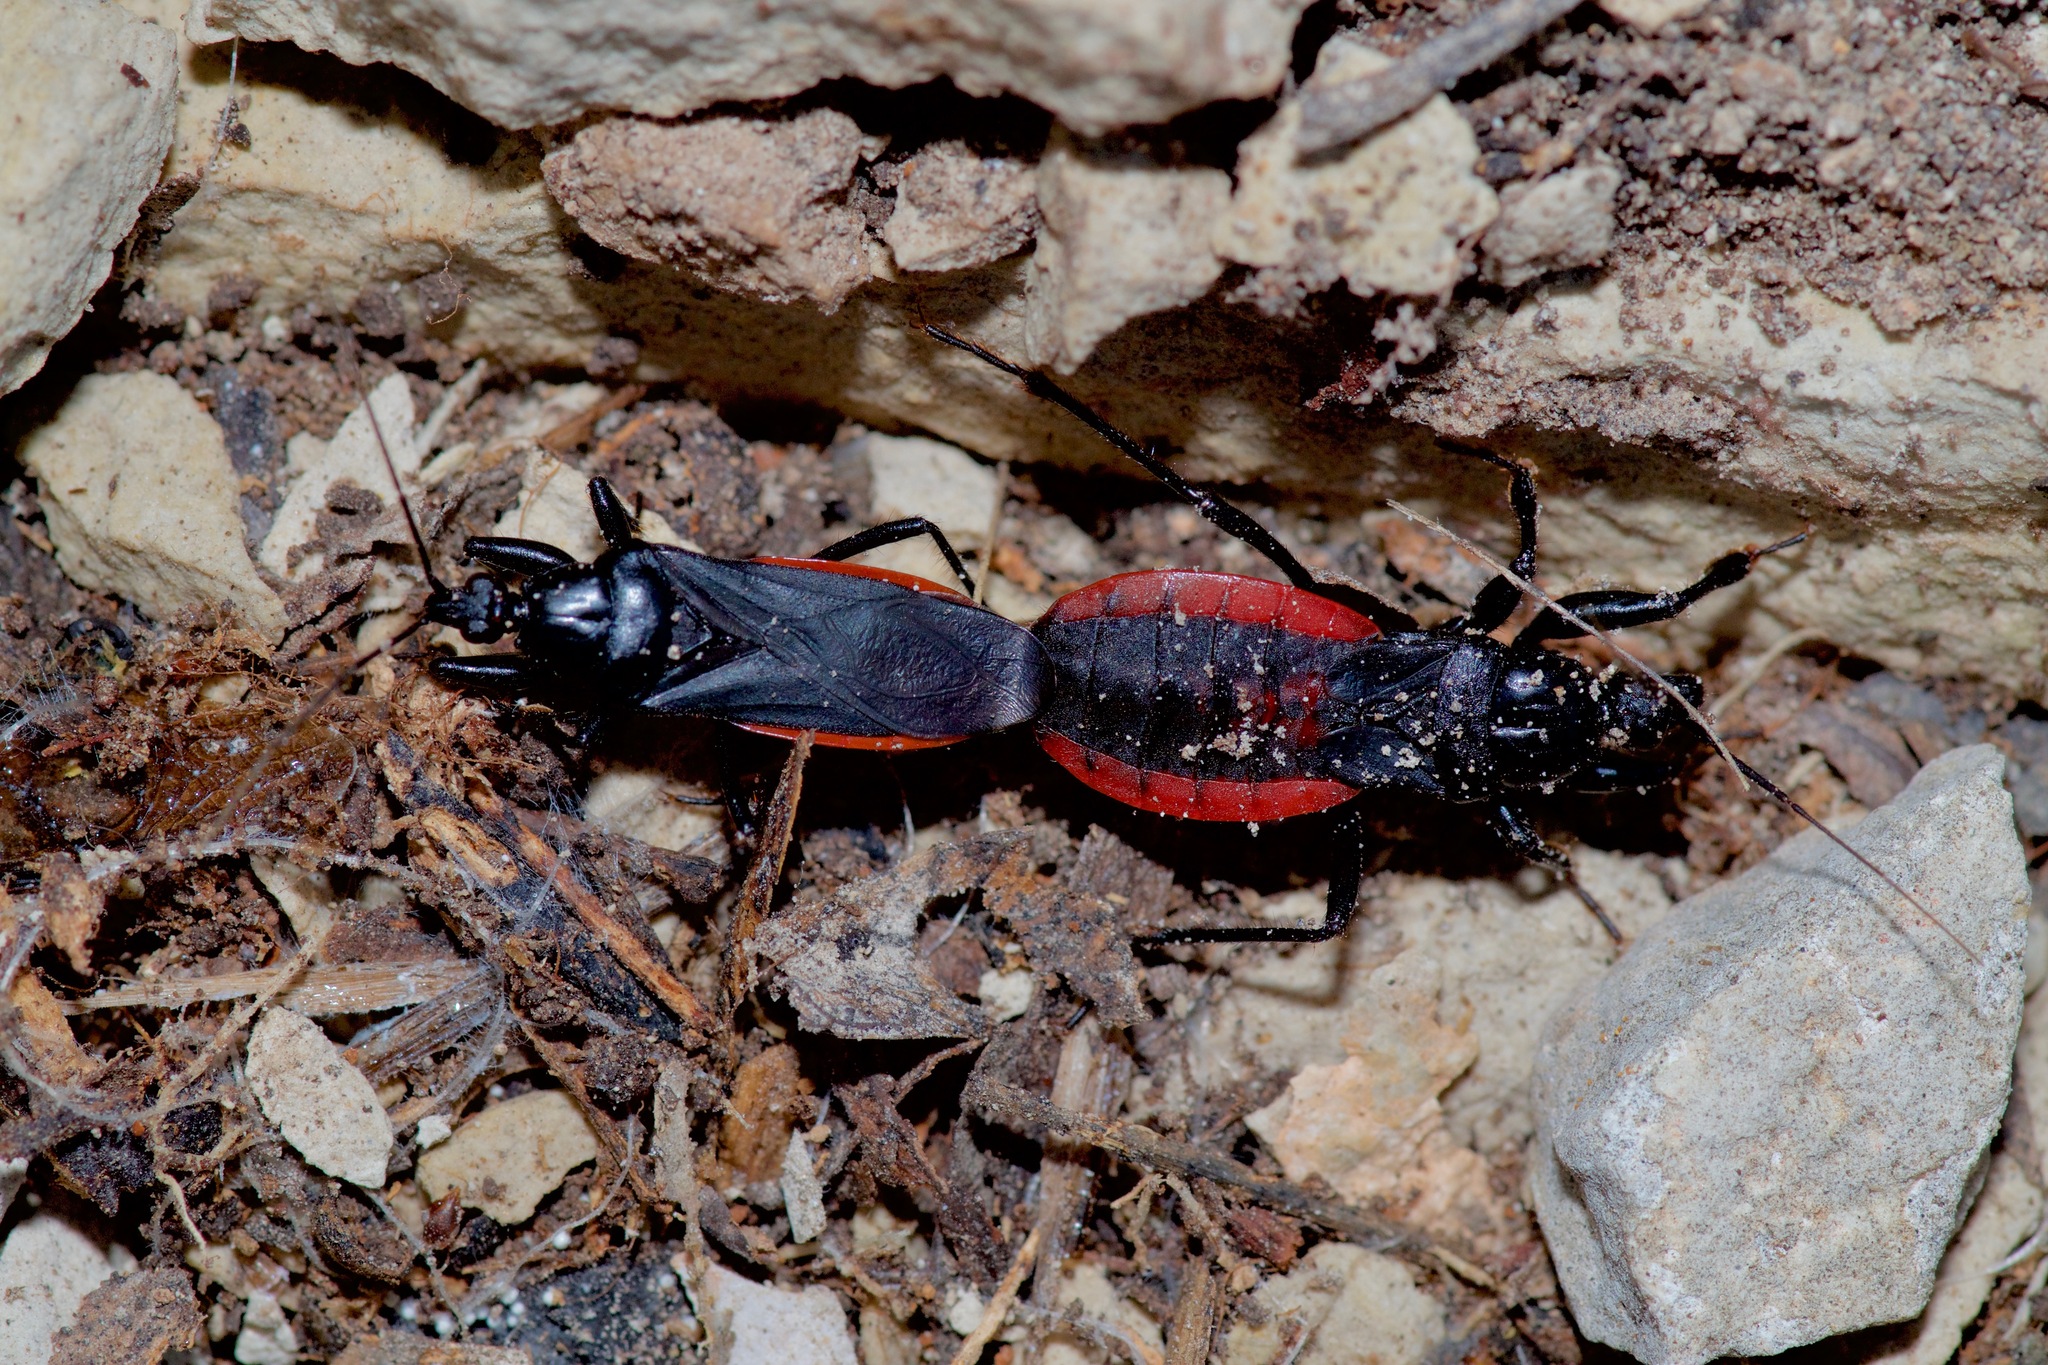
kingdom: Animalia
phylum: Arthropoda
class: Insecta
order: Hemiptera
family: Reduviidae
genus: Melanolestes
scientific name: Melanolestes picipes
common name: Assassin bug
